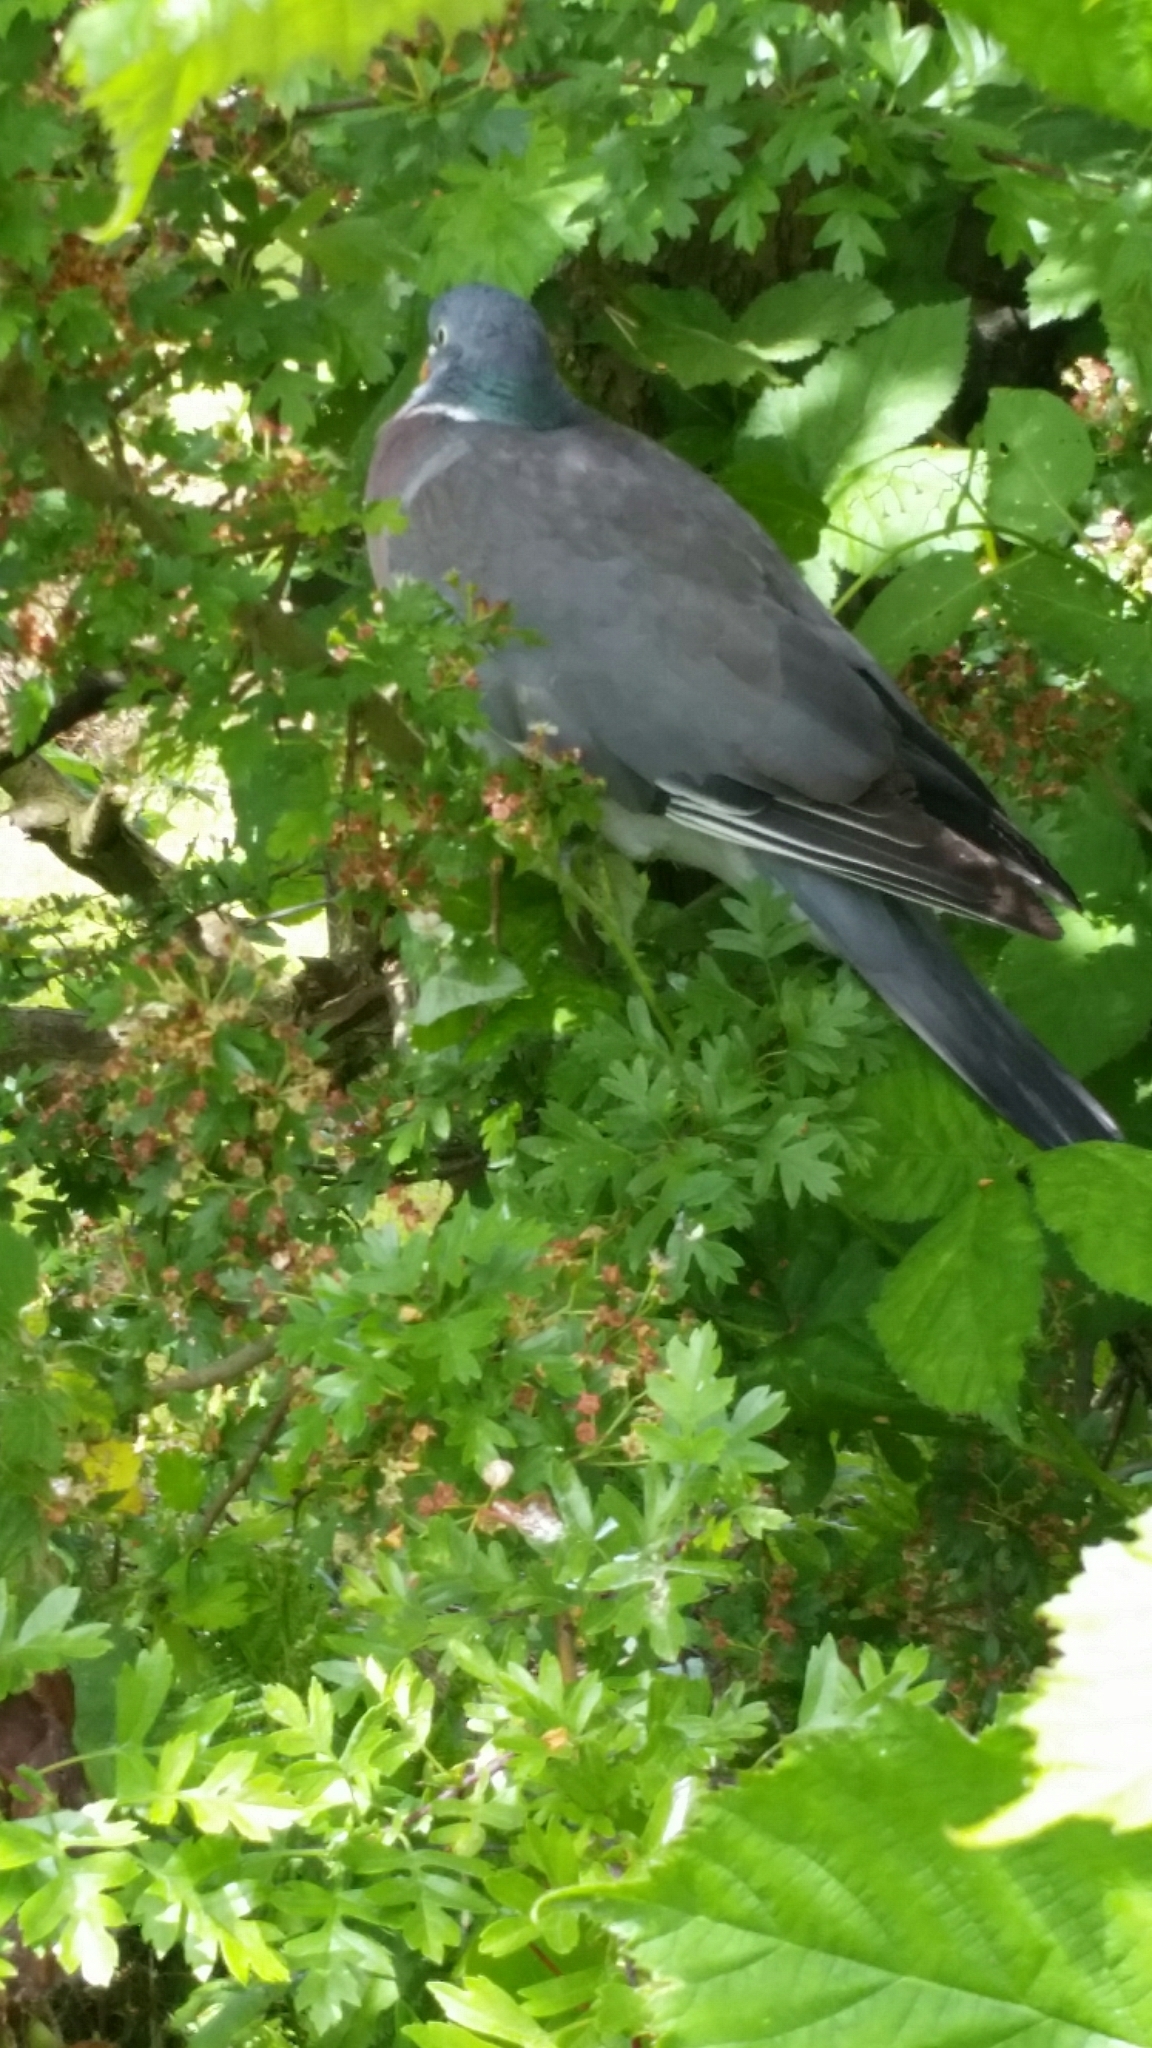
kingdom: Animalia
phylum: Chordata
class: Aves
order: Columbiformes
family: Columbidae
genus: Columba
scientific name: Columba palumbus
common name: Common wood pigeon
